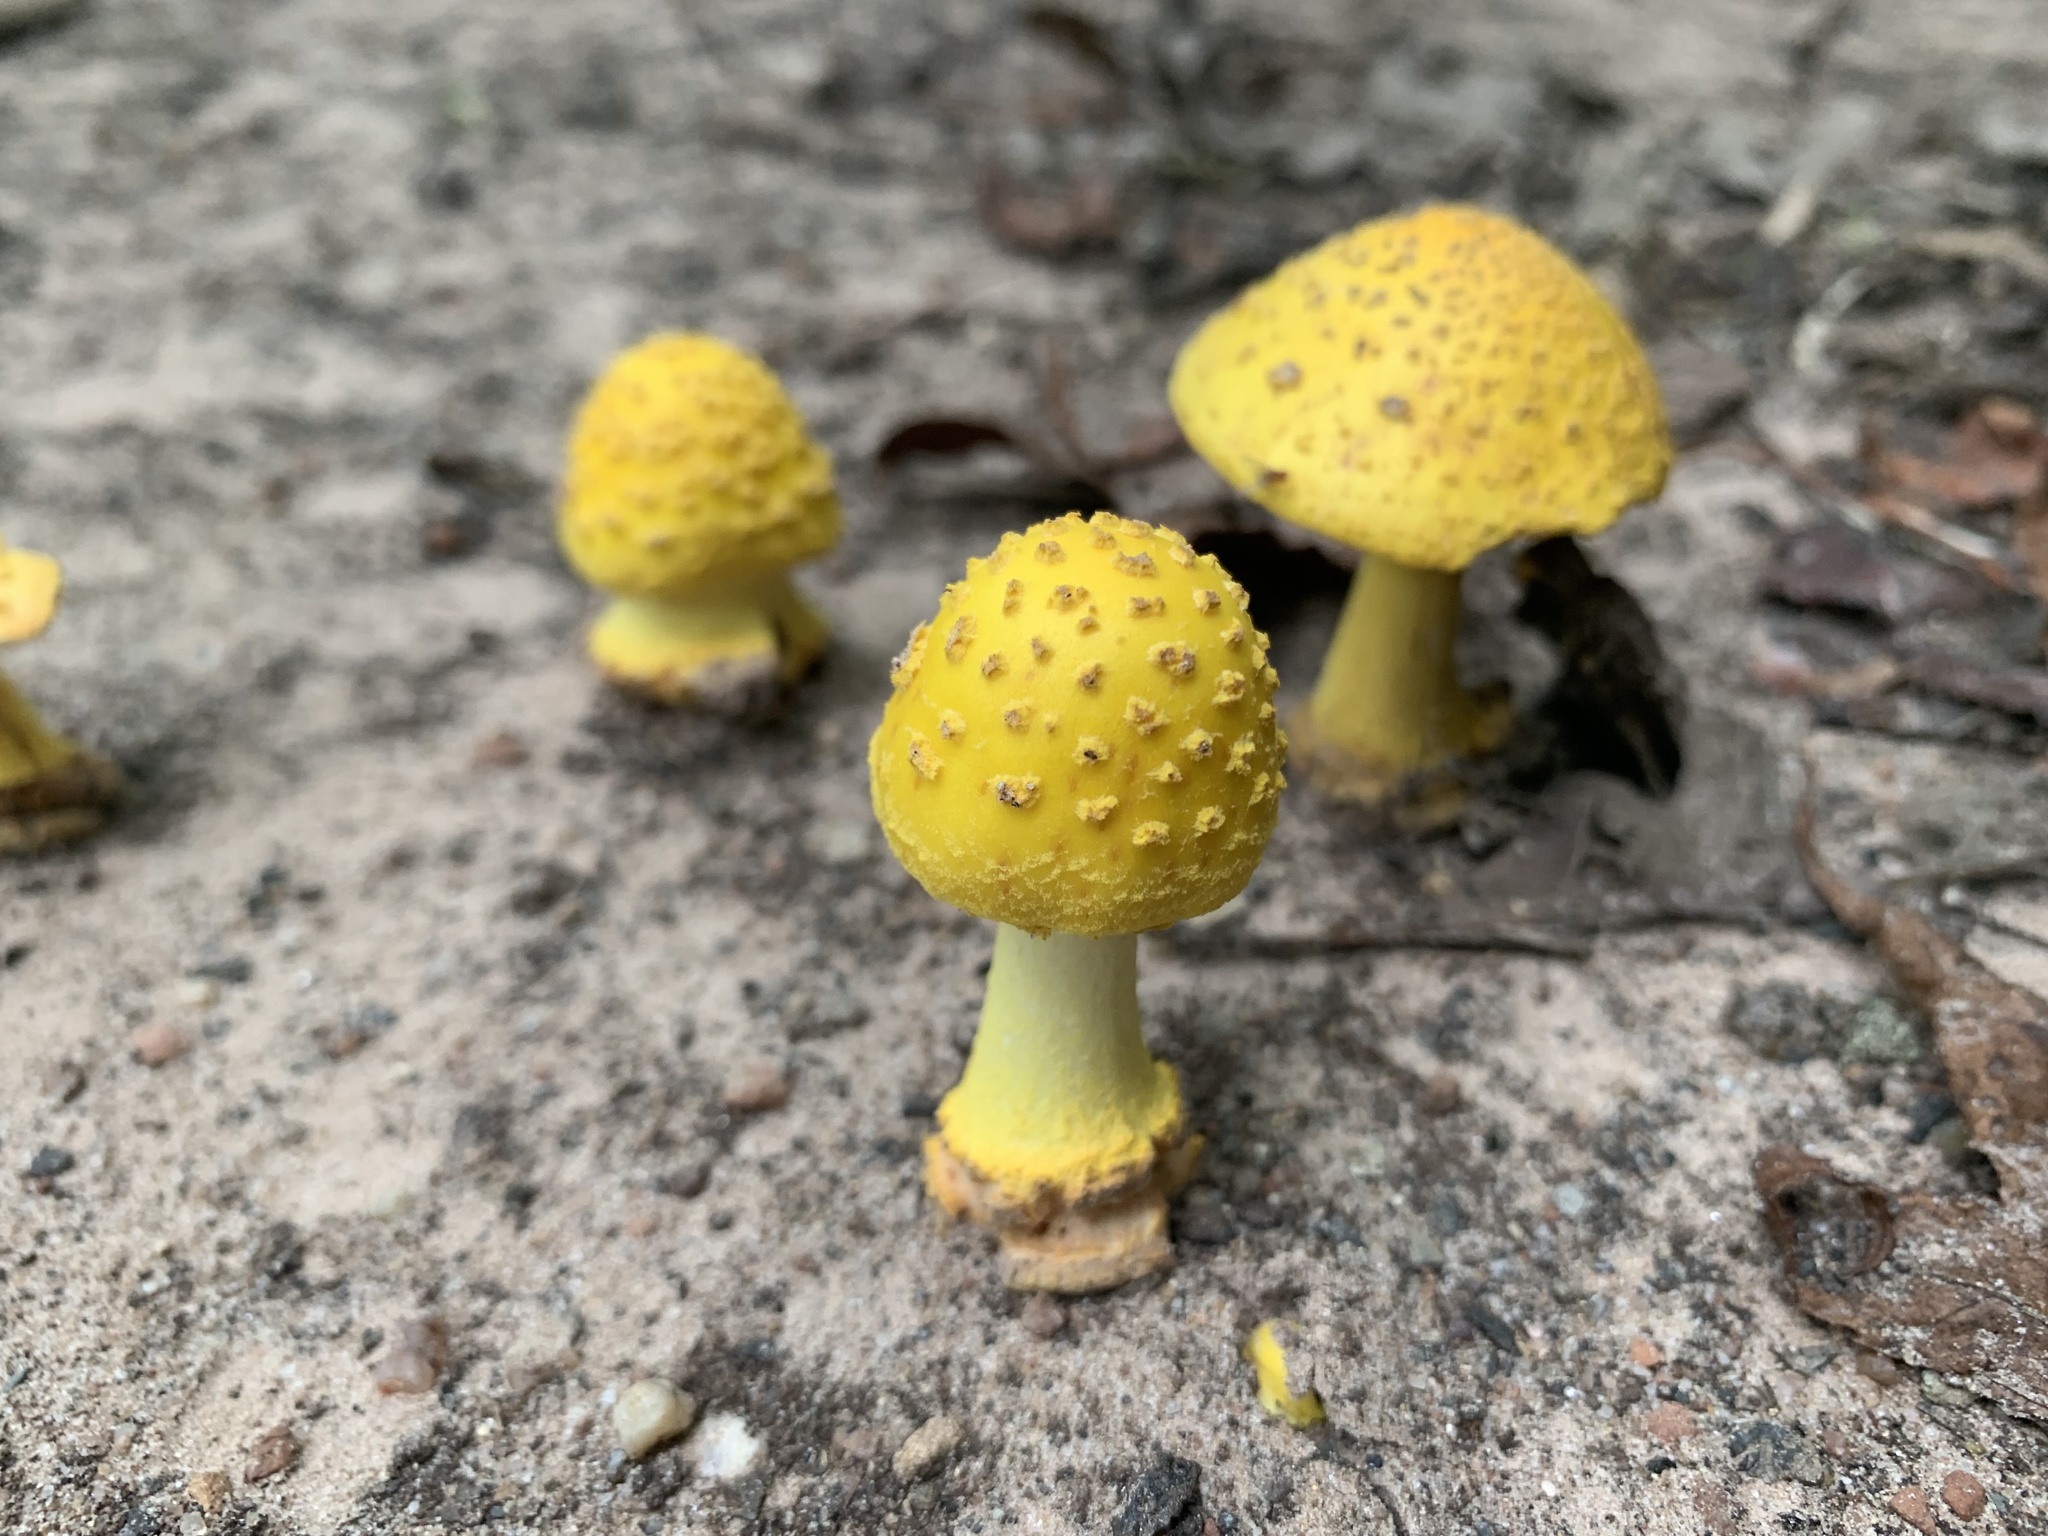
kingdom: Fungi
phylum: Basidiomycota
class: Agaricomycetes
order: Agaricales
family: Amanitaceae
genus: Amanita
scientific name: Amanita flavorubens
